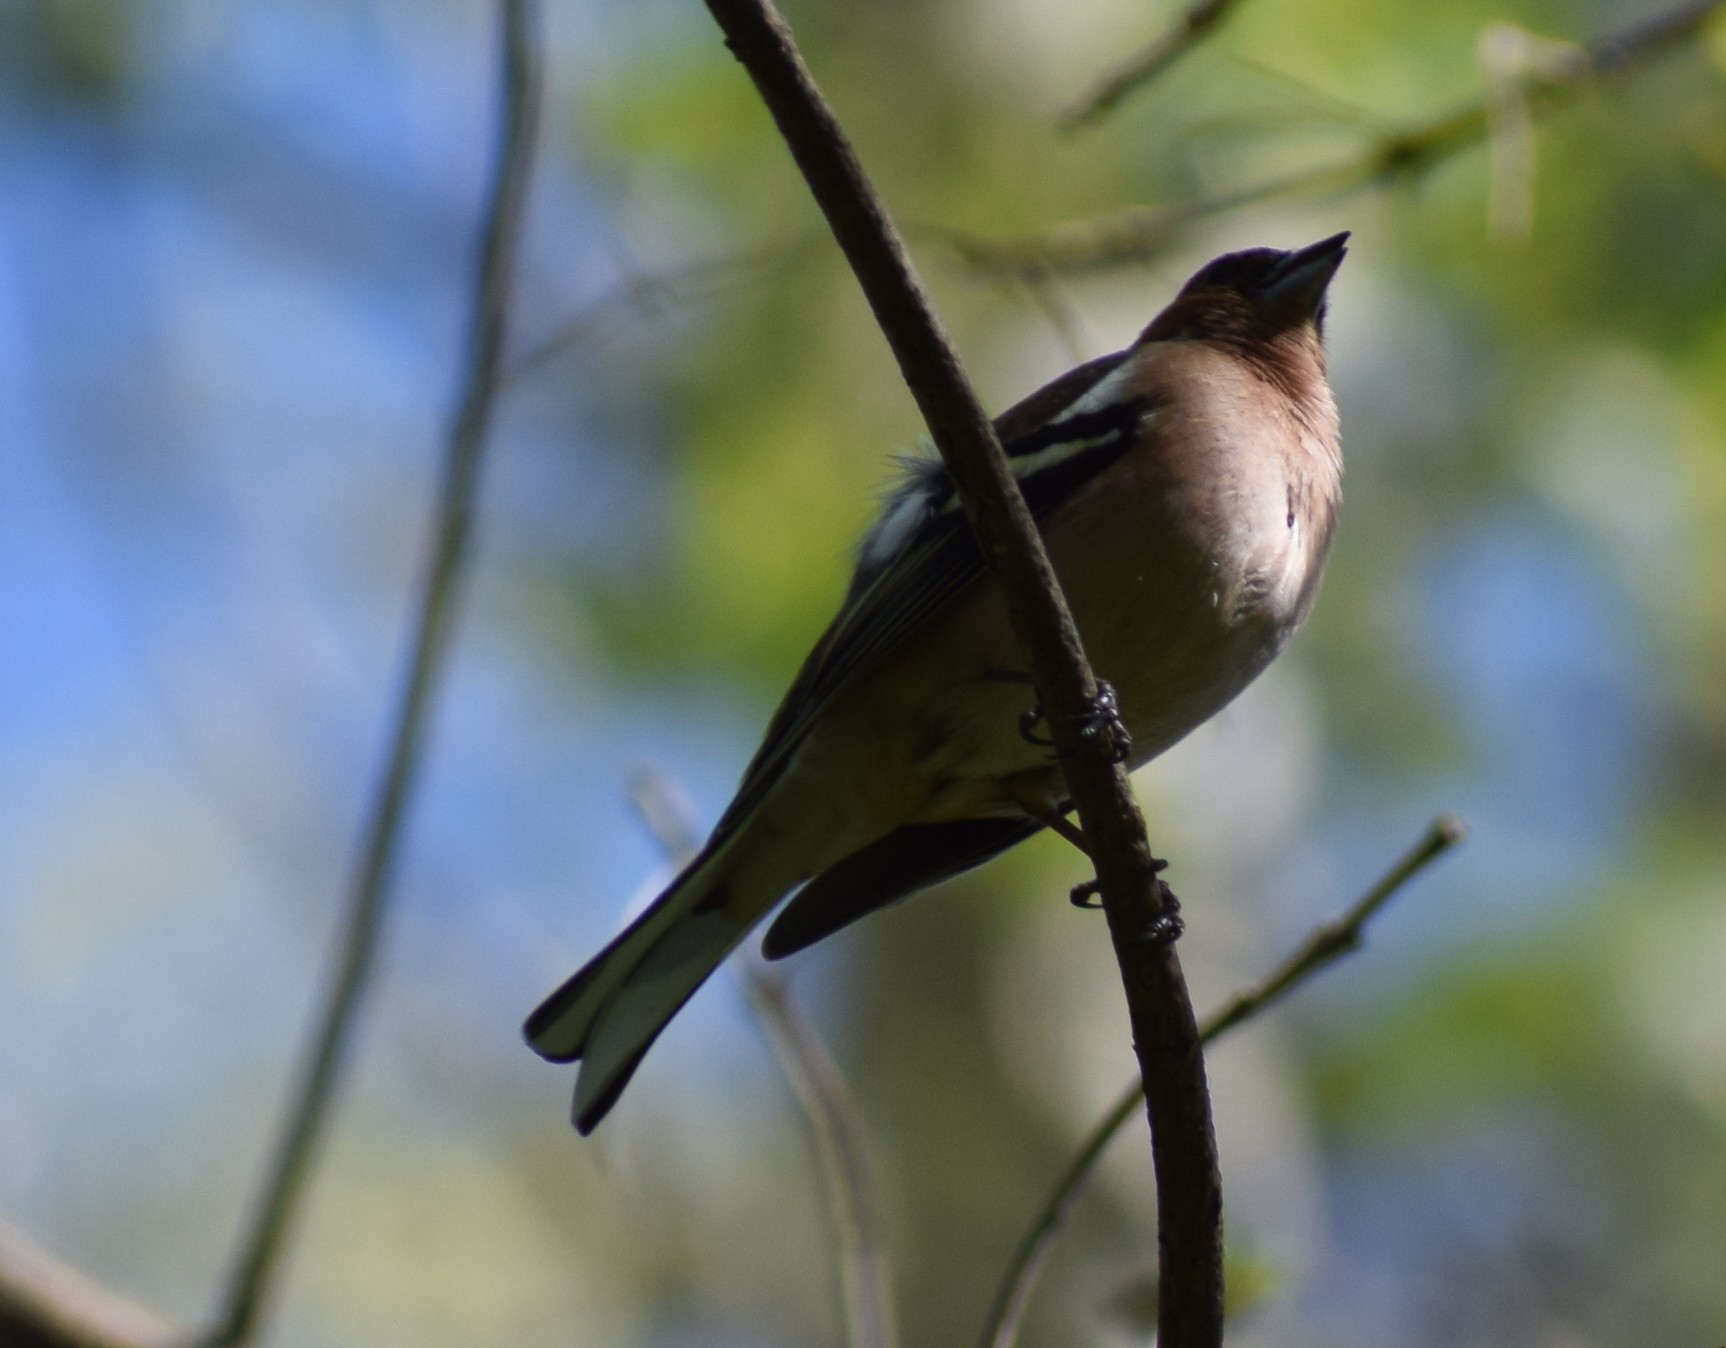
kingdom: Animalia
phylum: Chordata
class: Aves
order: Passeriformes
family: Fringillidae
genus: Fringilla
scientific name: Fringilla coelebs
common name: Common chaffinch
